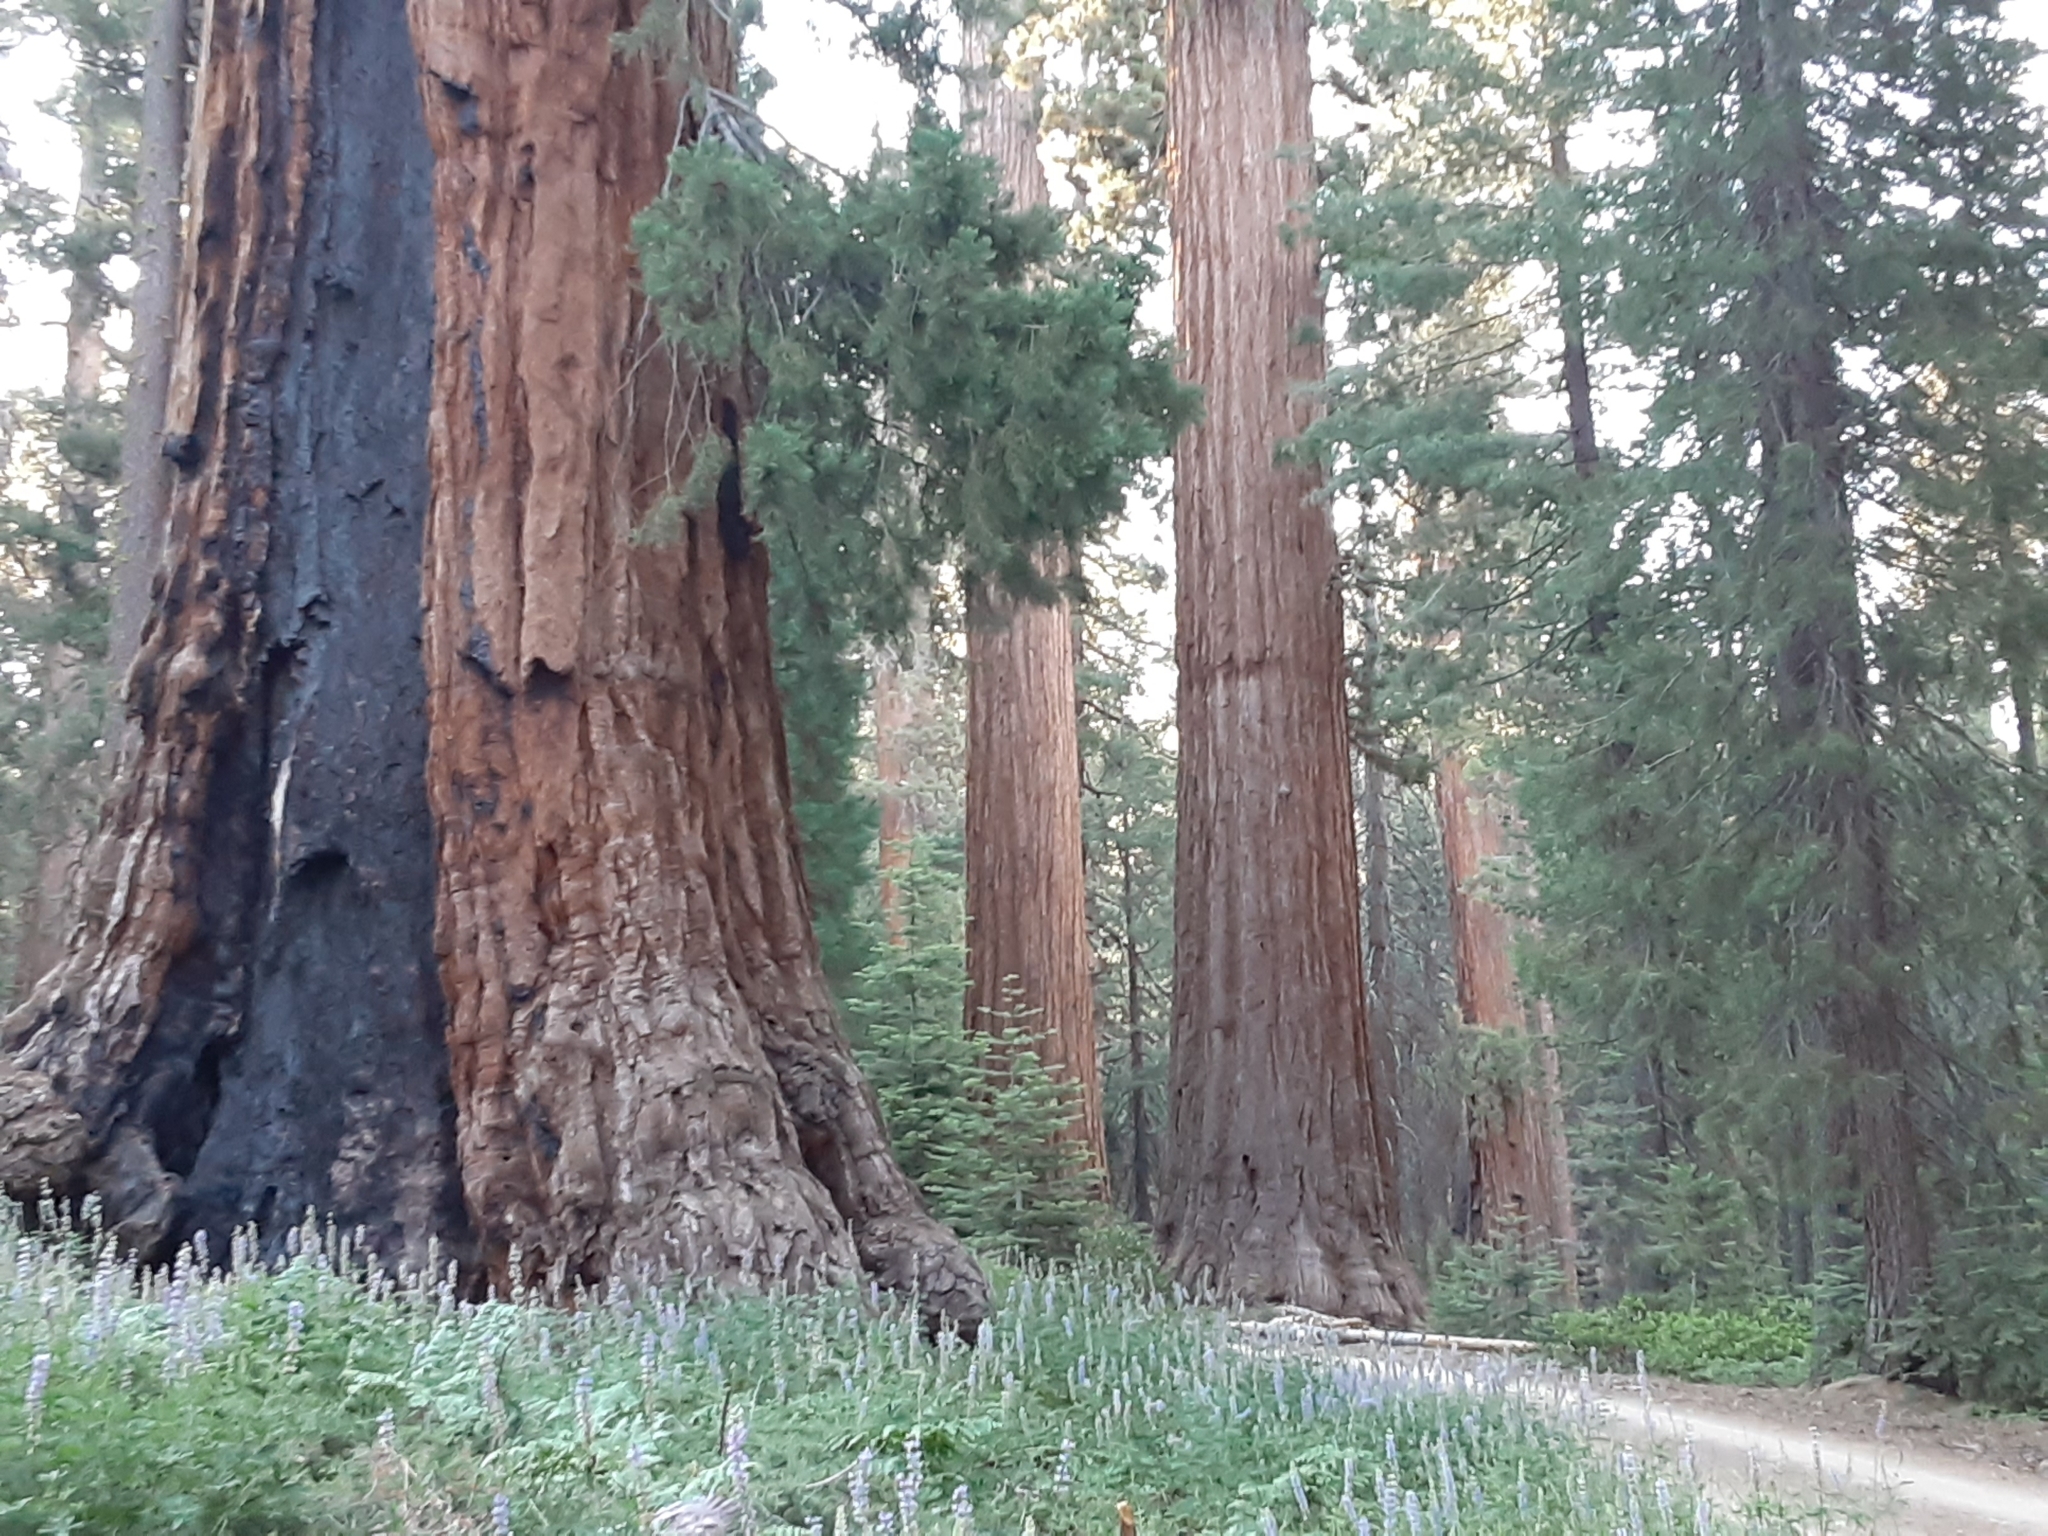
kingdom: Plantae
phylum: Tracheophyta
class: Pinopsida
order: Pinales
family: Cupressaceae
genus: Sequoiadendron
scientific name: Sequoiadendron giganteum
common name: Wellingtonia
